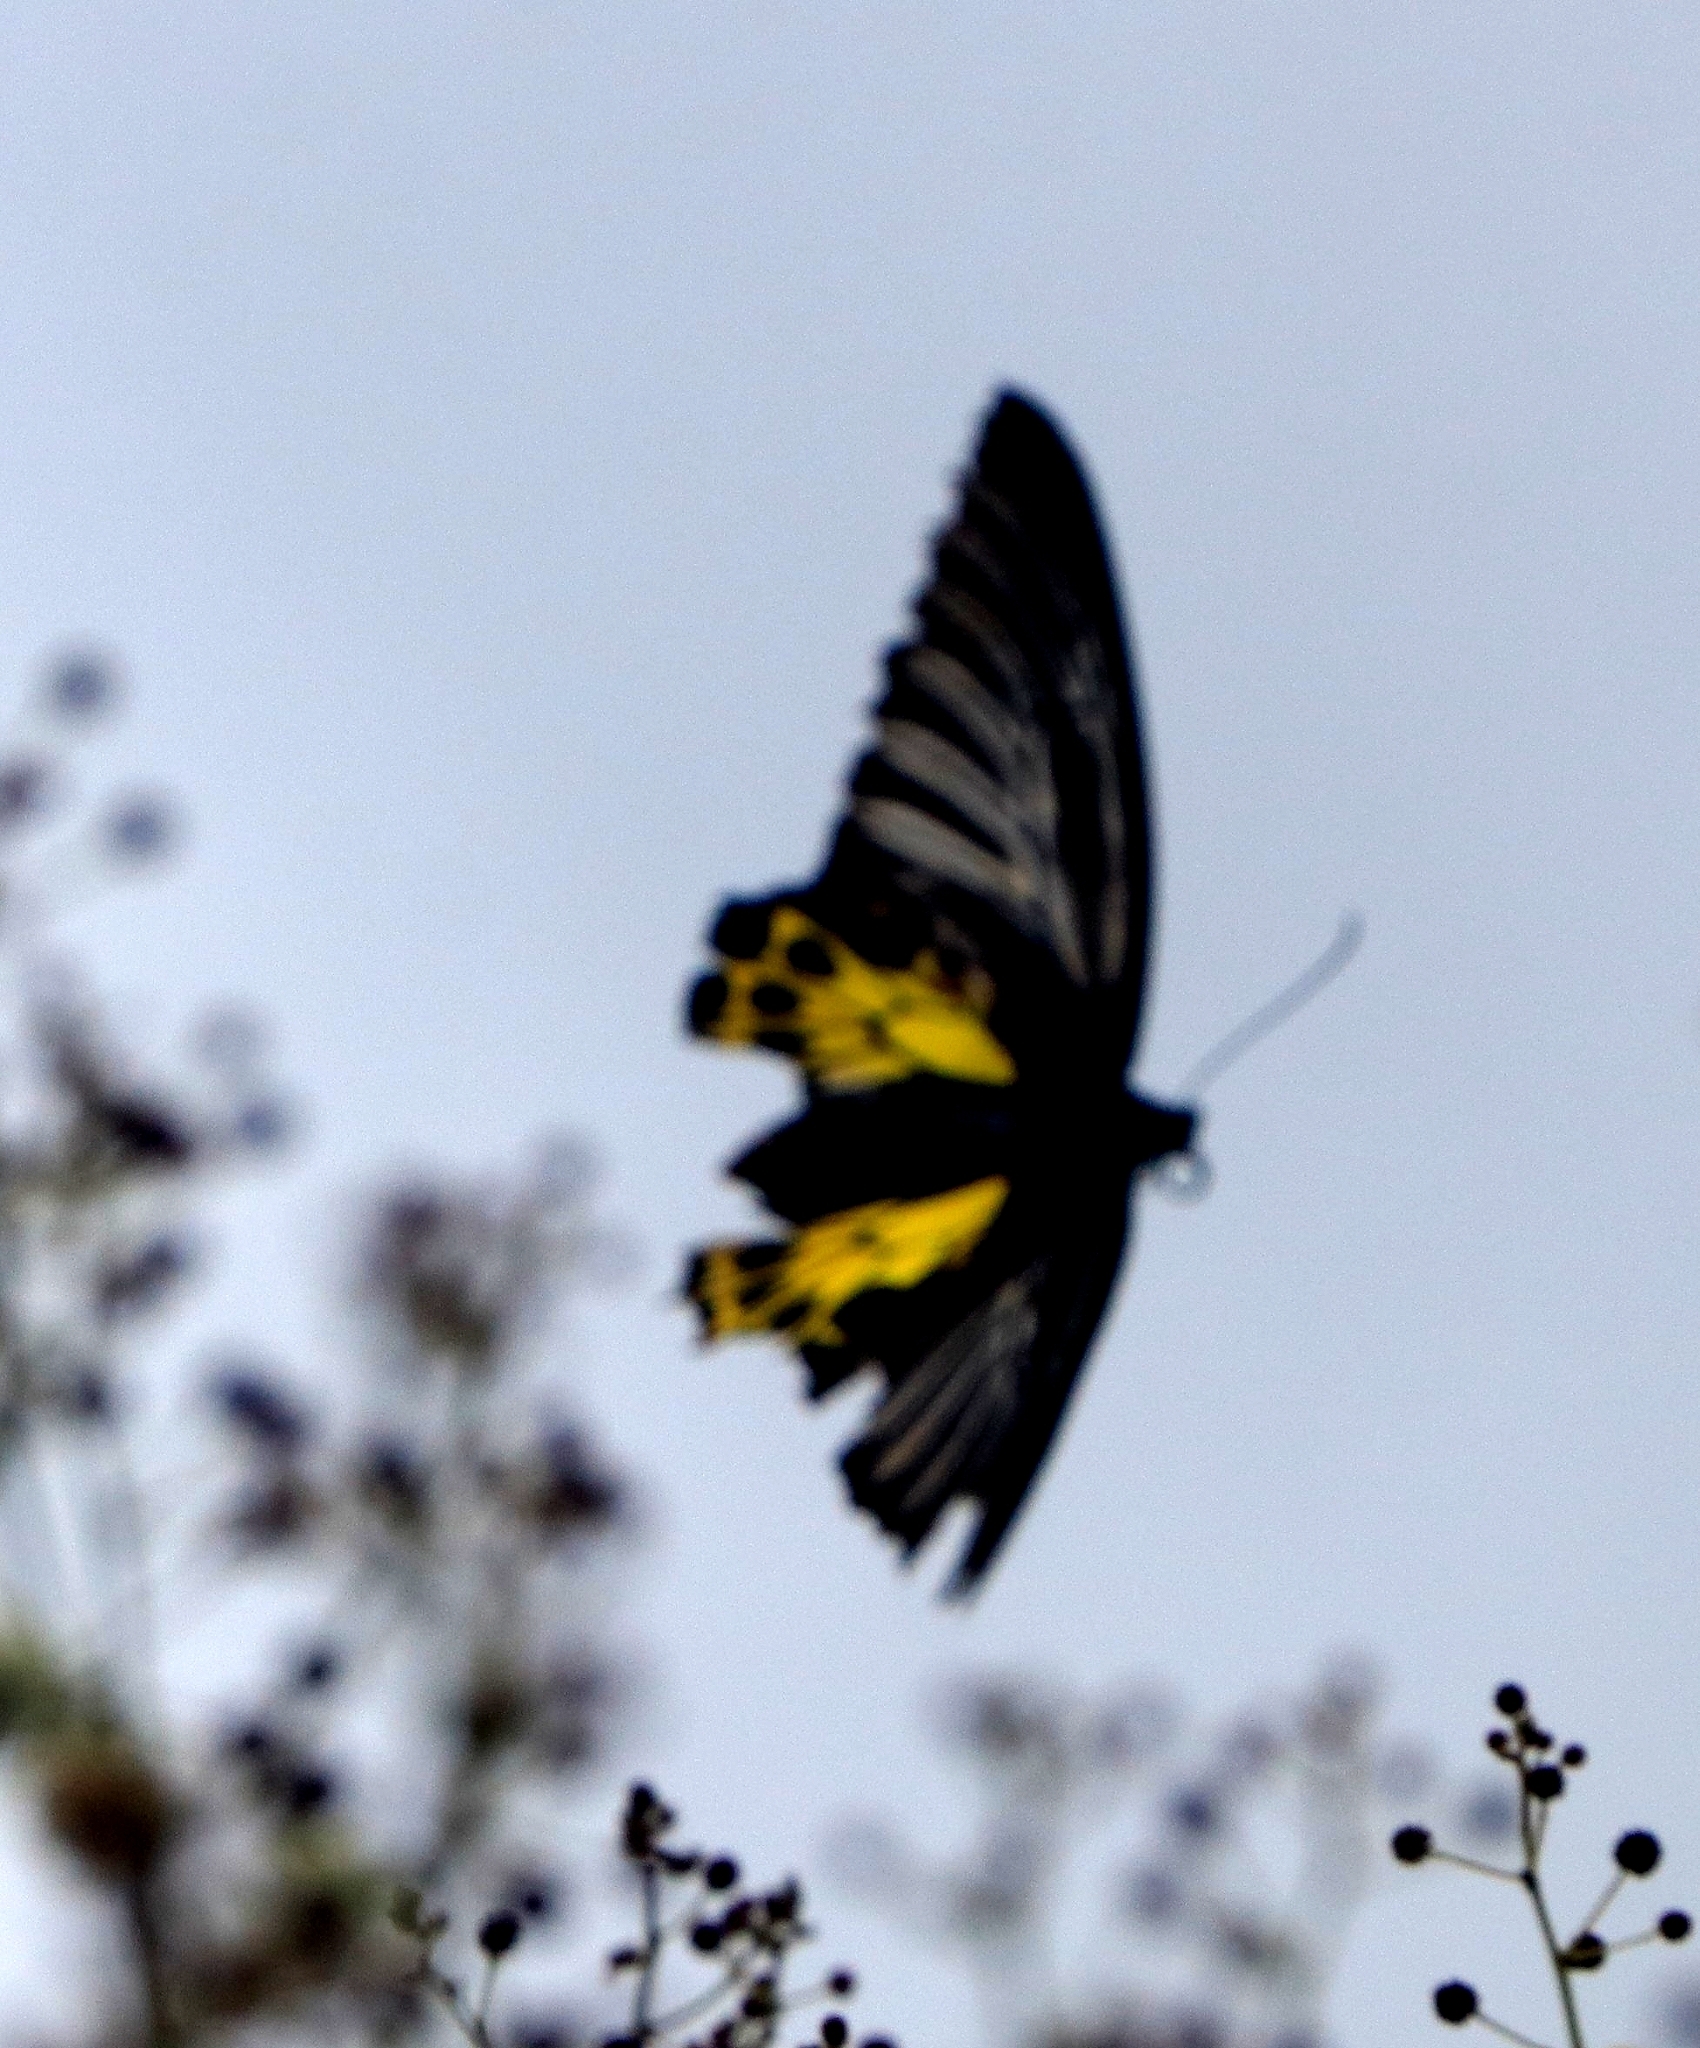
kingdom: Animalia
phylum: Arthropoda
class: Insecta
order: Lepidoptera
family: Papilionidae
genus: Troides
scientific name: Troides minos
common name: Malabar birdwing
